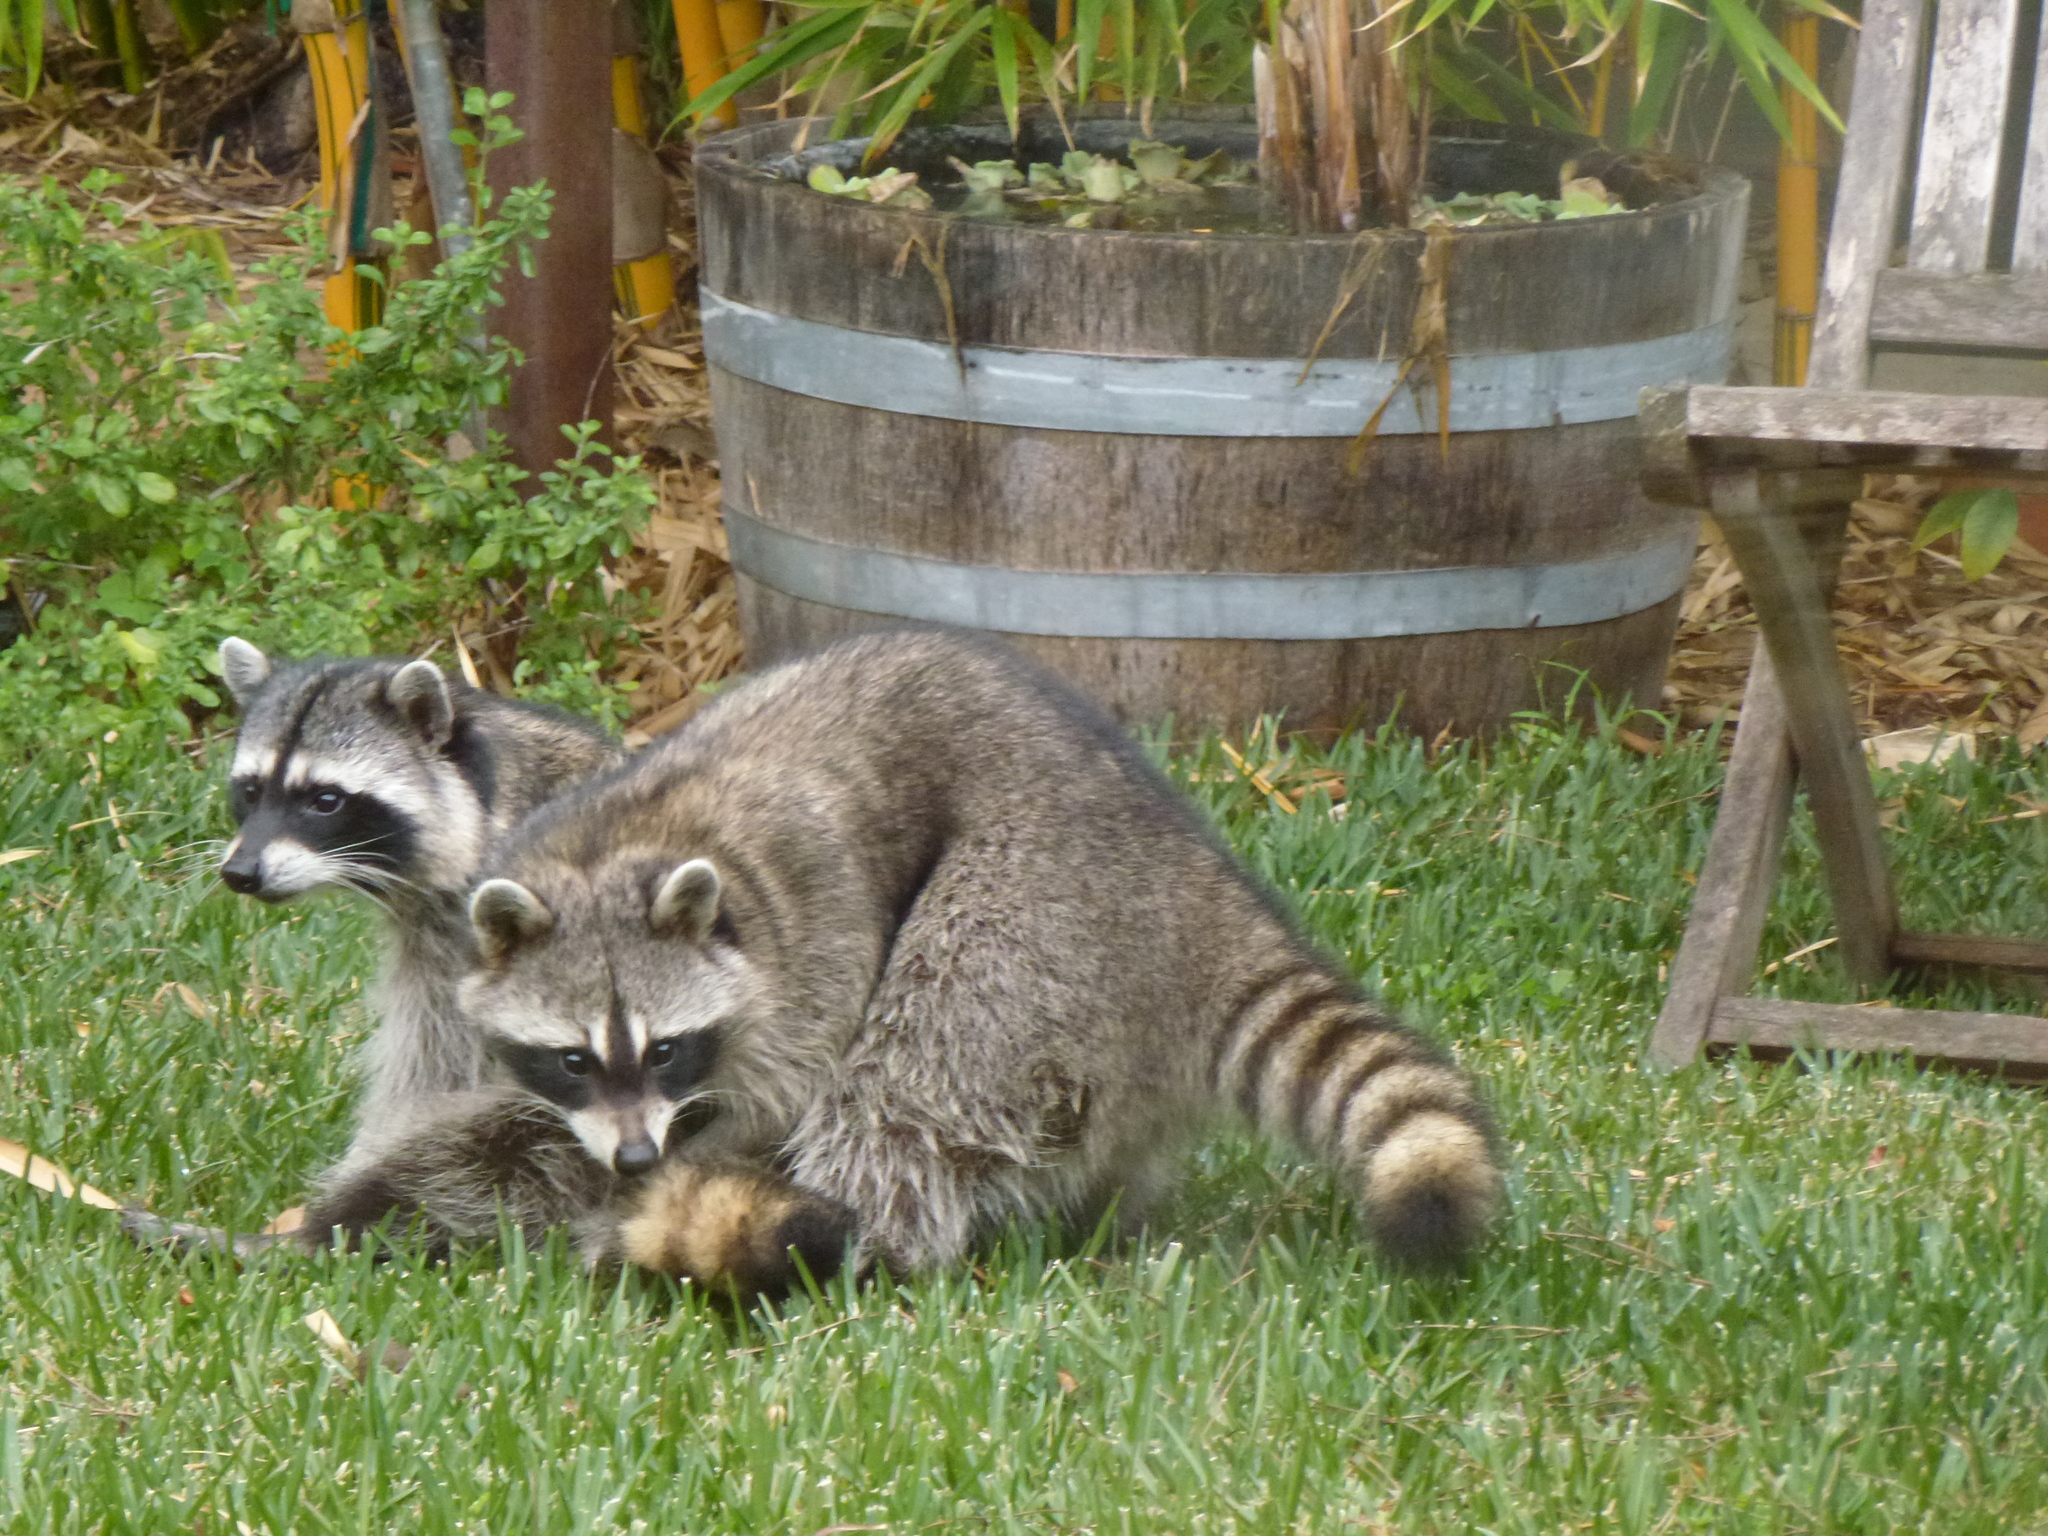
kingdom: Animalia
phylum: Chordata
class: Mammalia
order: Carnivora
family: Procyonidae
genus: Procyon
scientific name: Procyon lotor
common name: Raccoon
